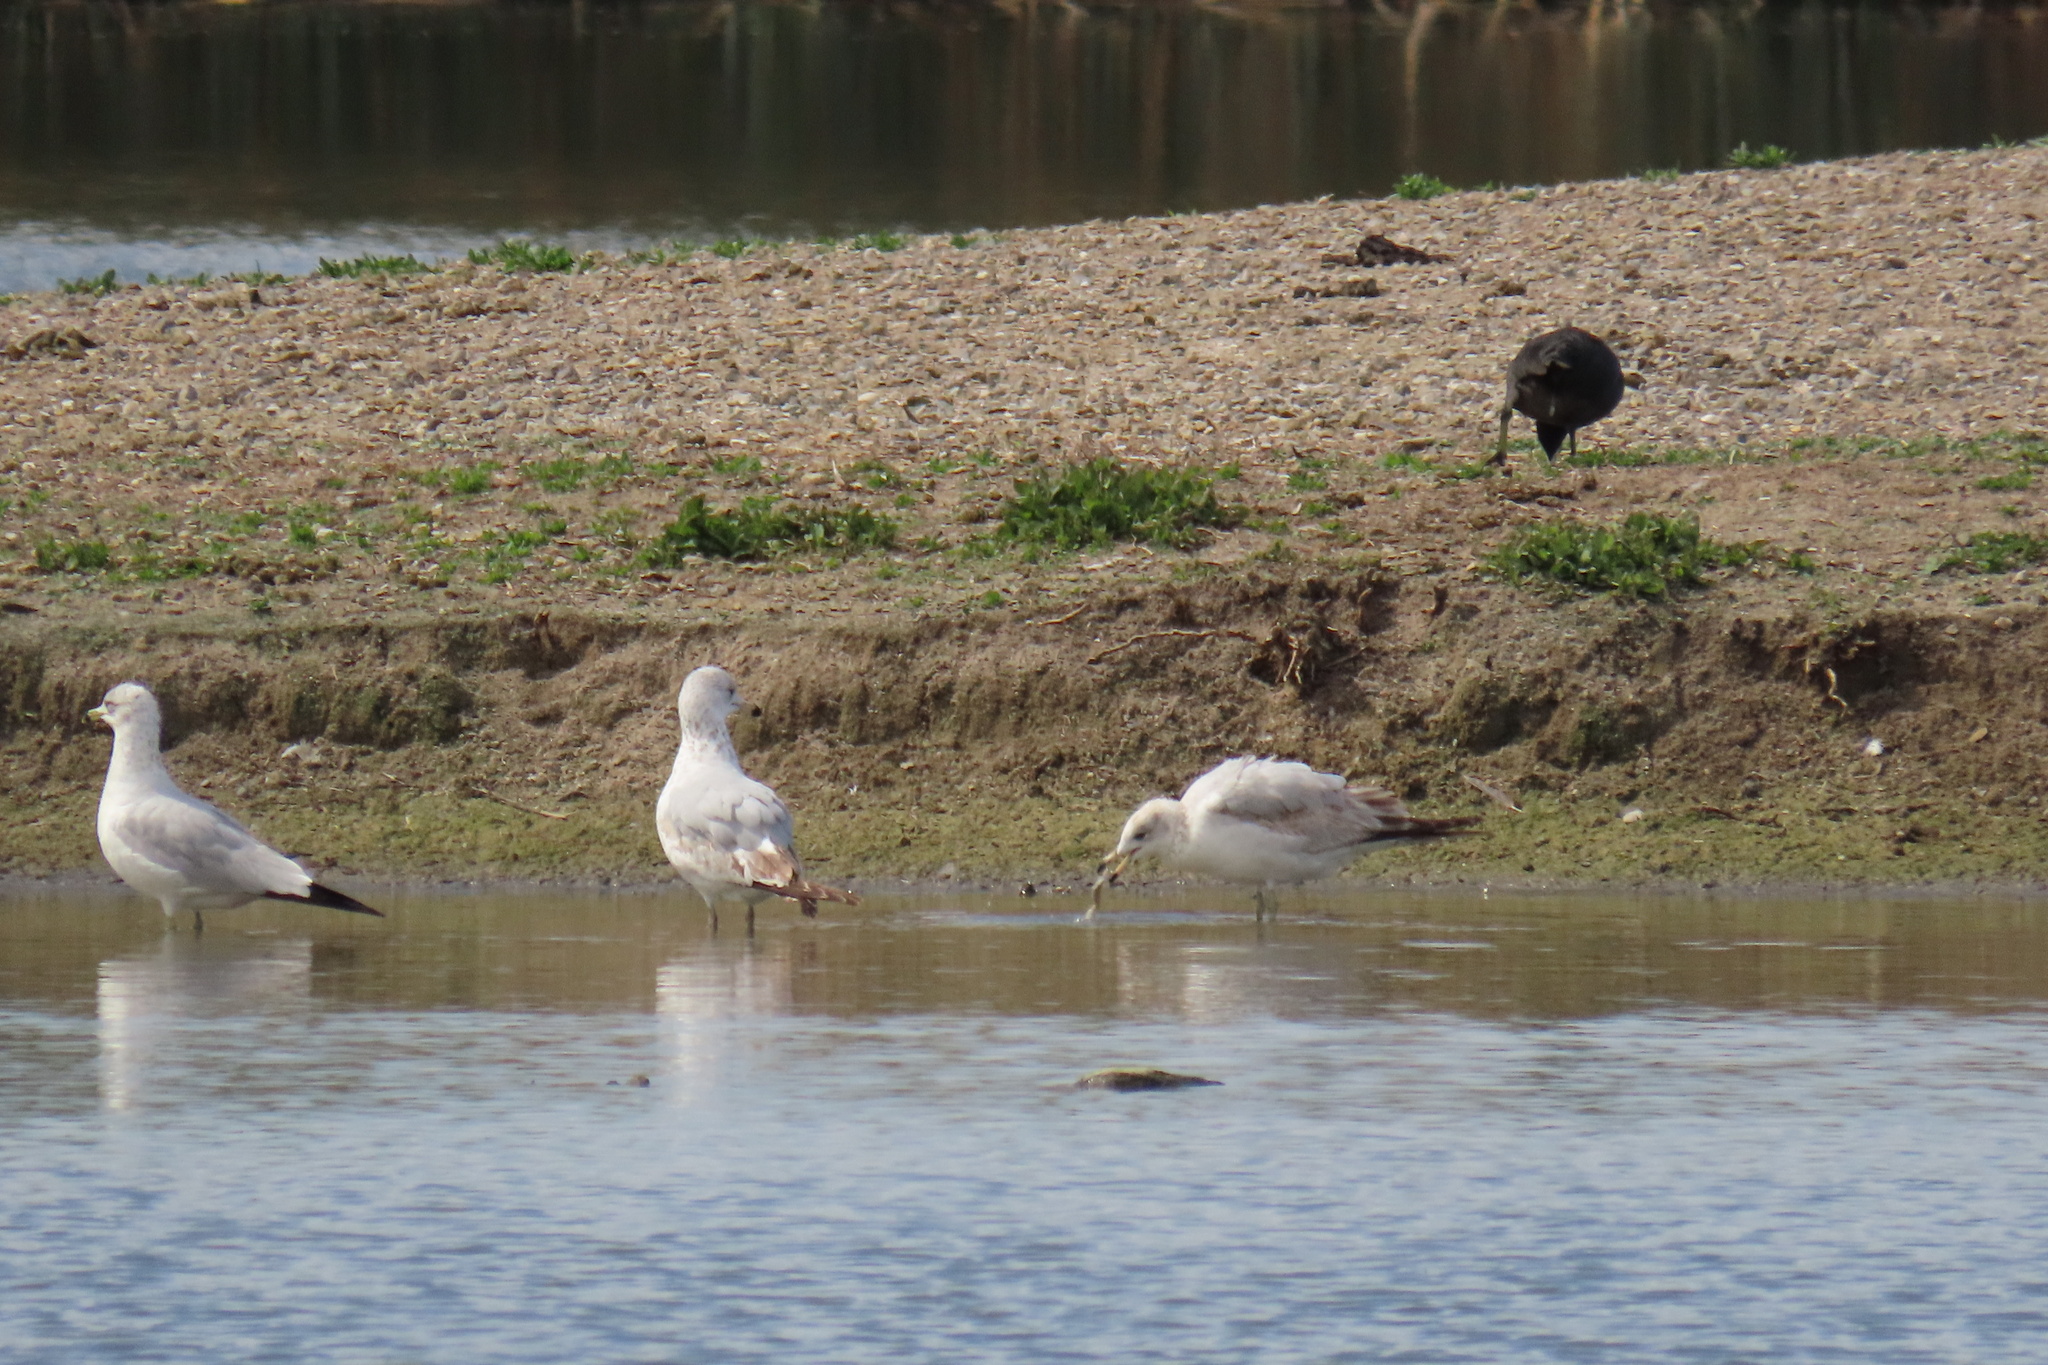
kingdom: Animalia
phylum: Chordata
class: Aves
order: Charadriiformes
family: Laridae
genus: Larus
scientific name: Larus delawarensis
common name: Ring-billed gull
